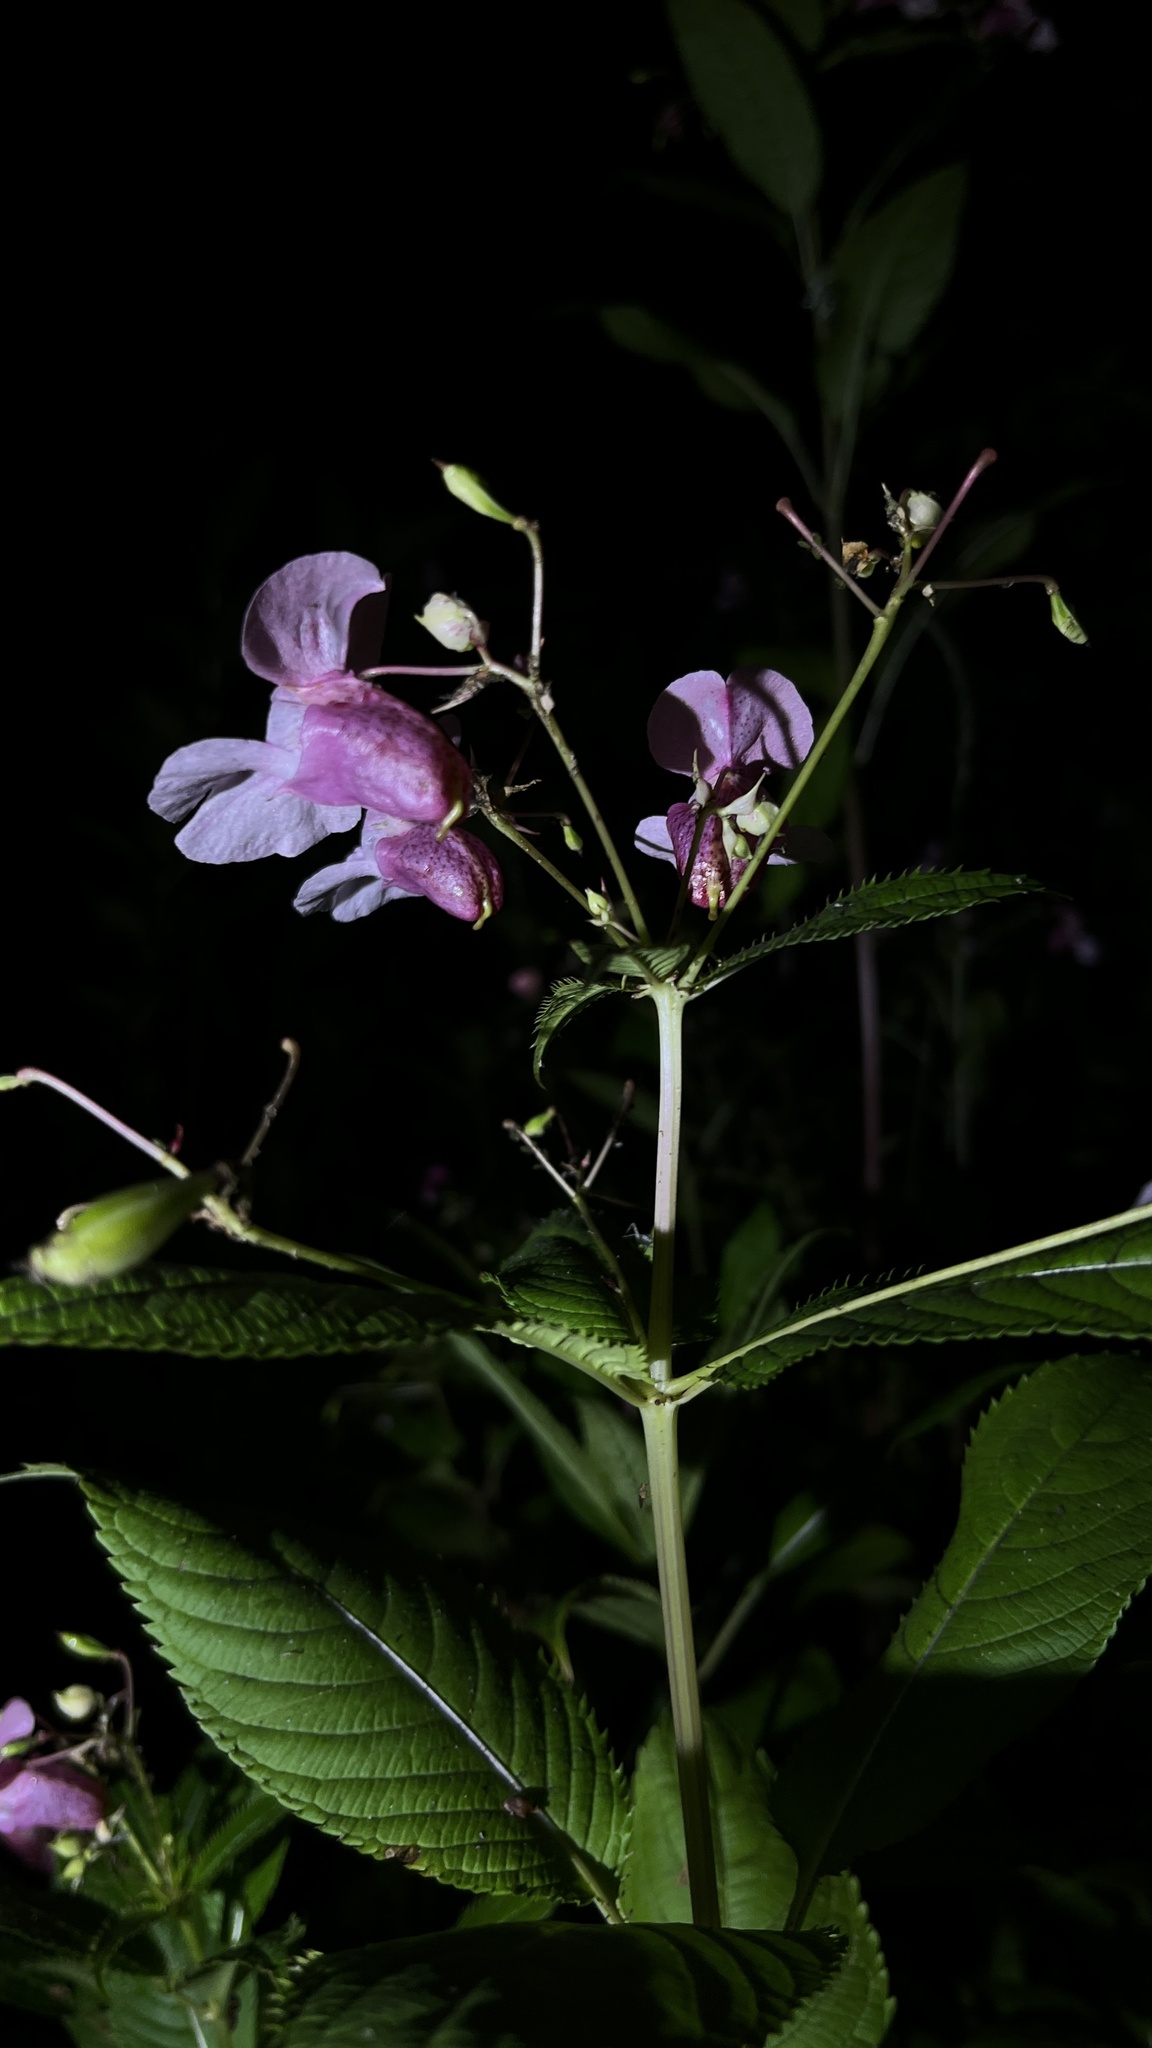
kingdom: Plantae
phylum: Tracheophyta
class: Magnoliopsida
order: Ericales
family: Balsaminaceae
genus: Impatiens
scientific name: Impatiens glandulifera
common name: Himalayan balsam
